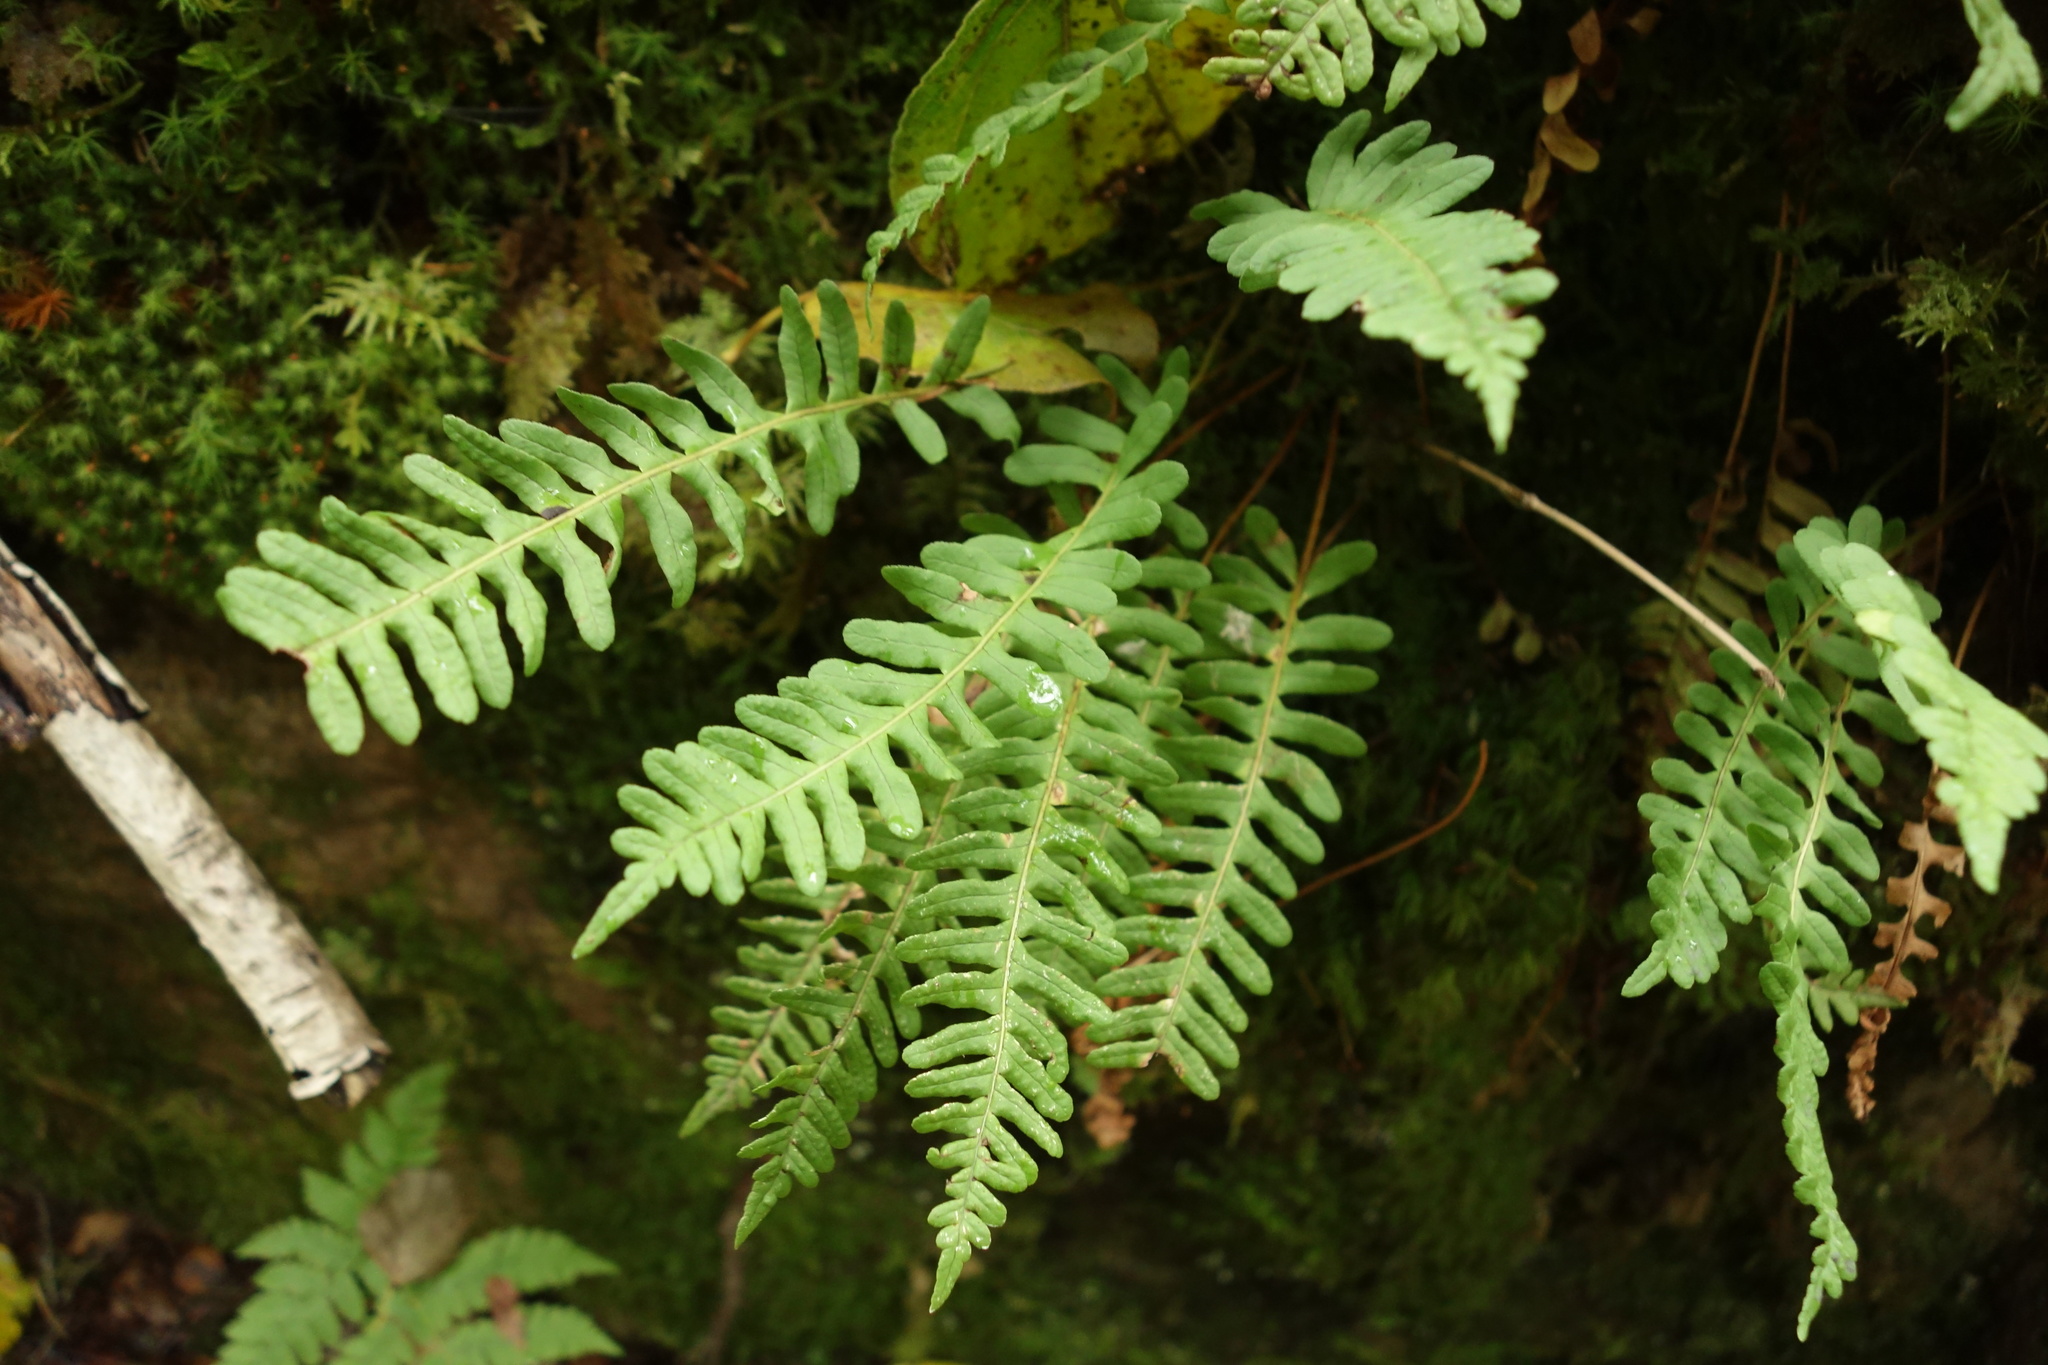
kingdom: Plantae
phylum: Tracheophyta
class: Polypodiopsida
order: Polypodiales
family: Polypodiaceae
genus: Polypodium
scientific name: Polypodium sibiricum
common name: Siberian polypody
